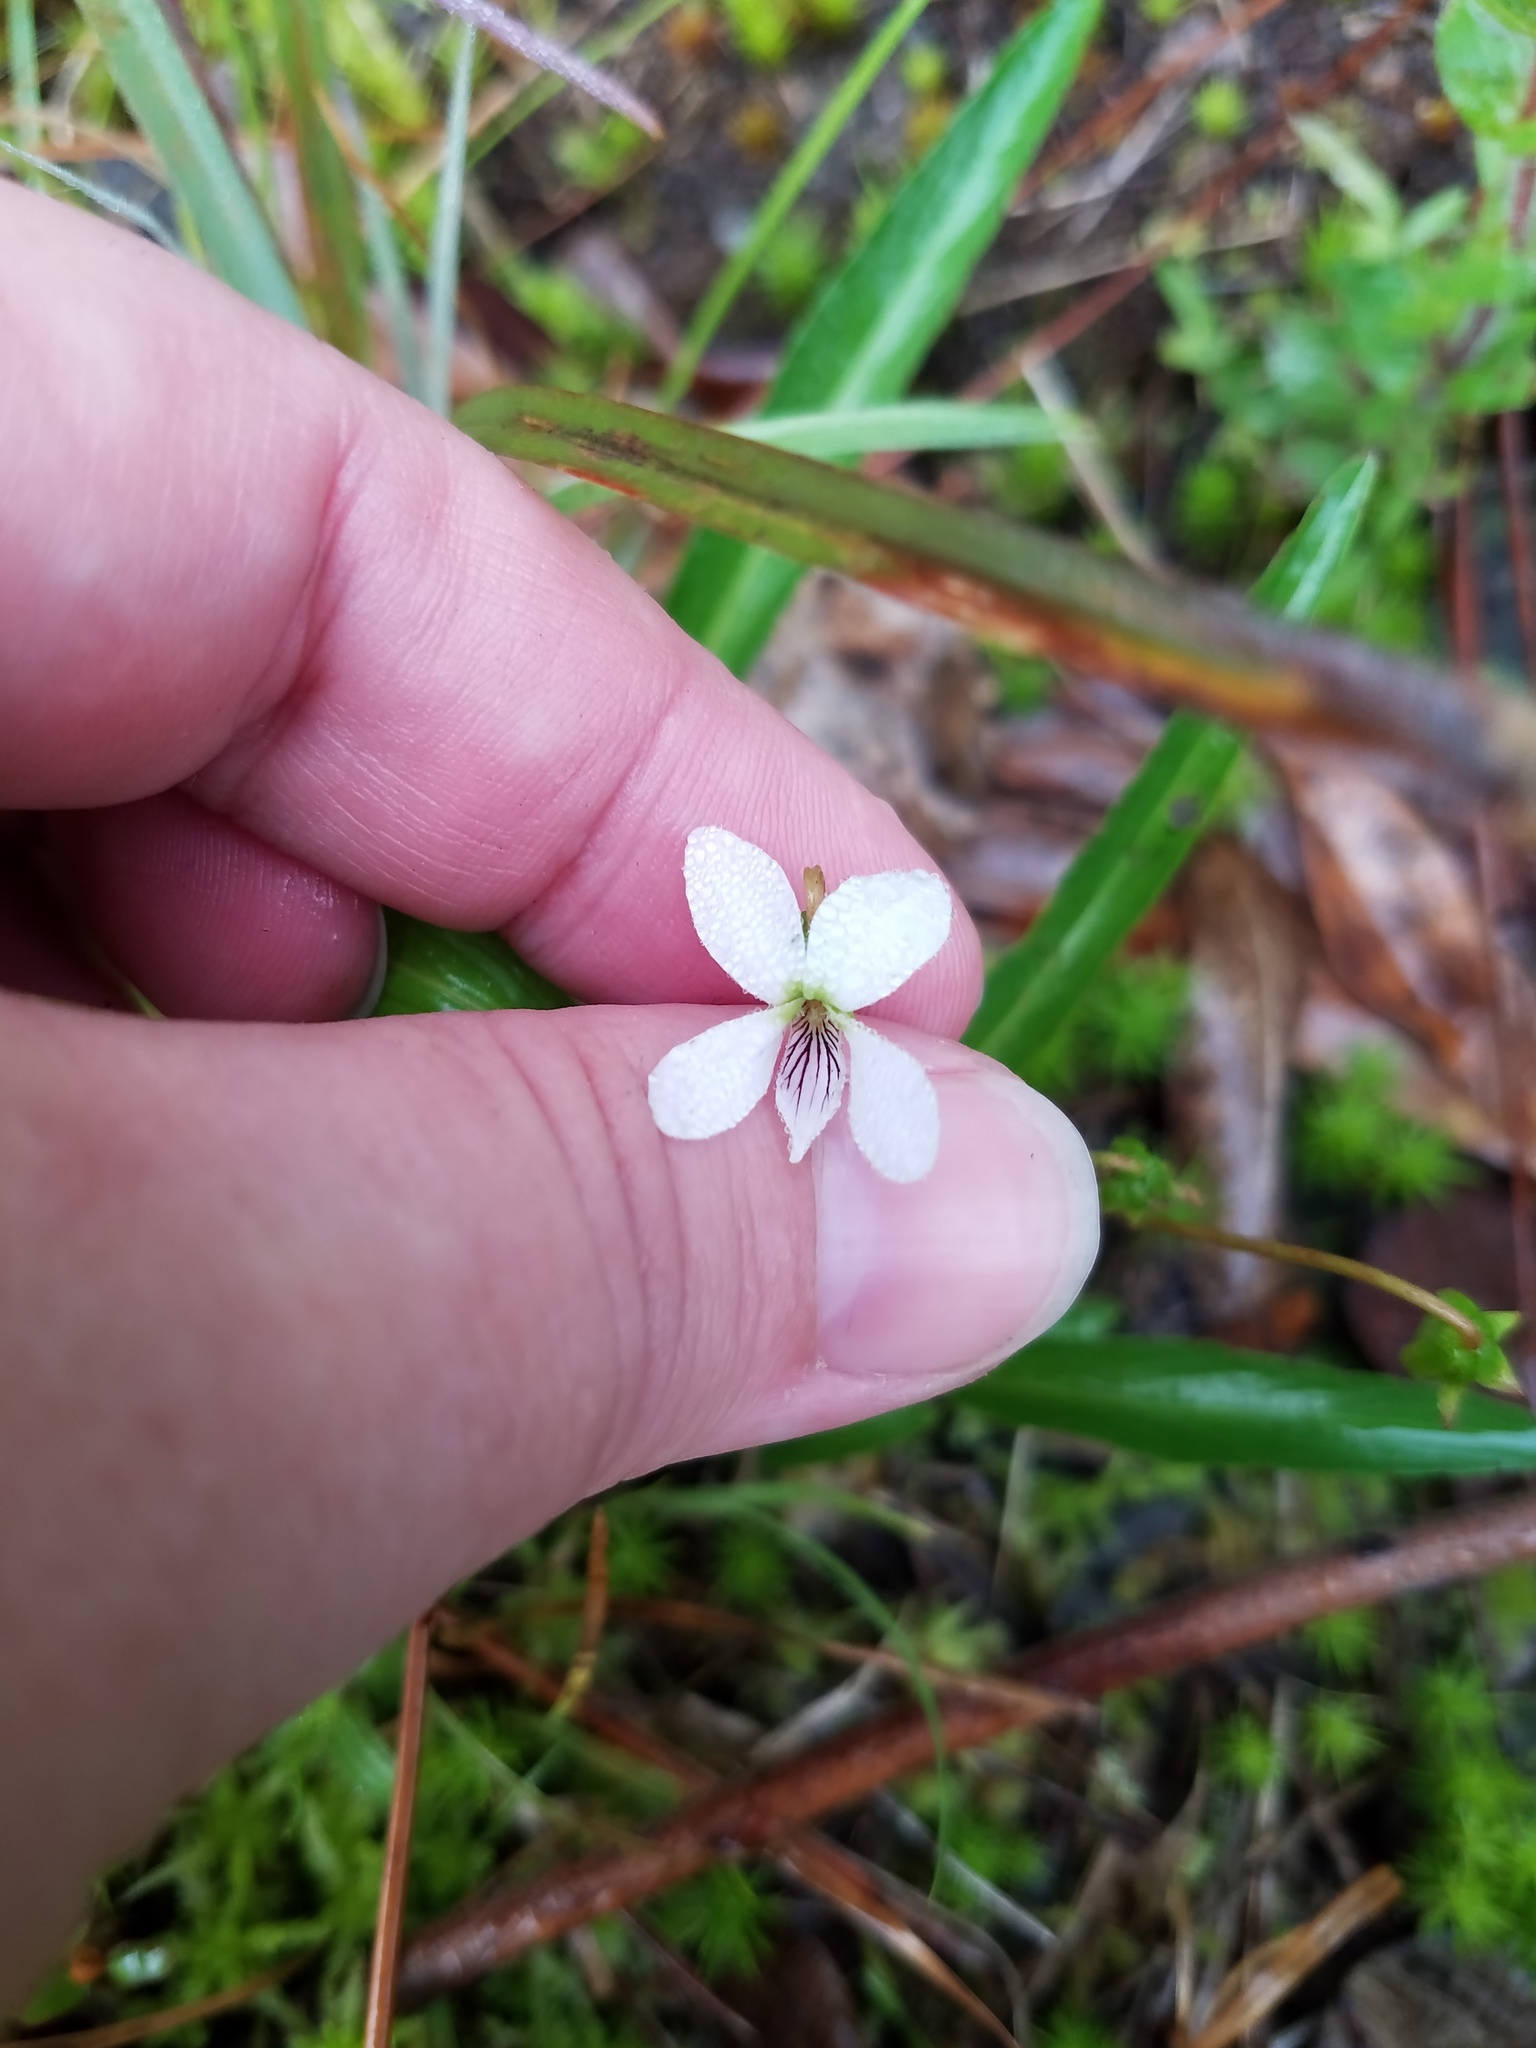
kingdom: Plantae
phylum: Tracheophyta
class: Magnoliopsida
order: Malpighiales
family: Violaceae
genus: Viola
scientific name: Viola vittata
